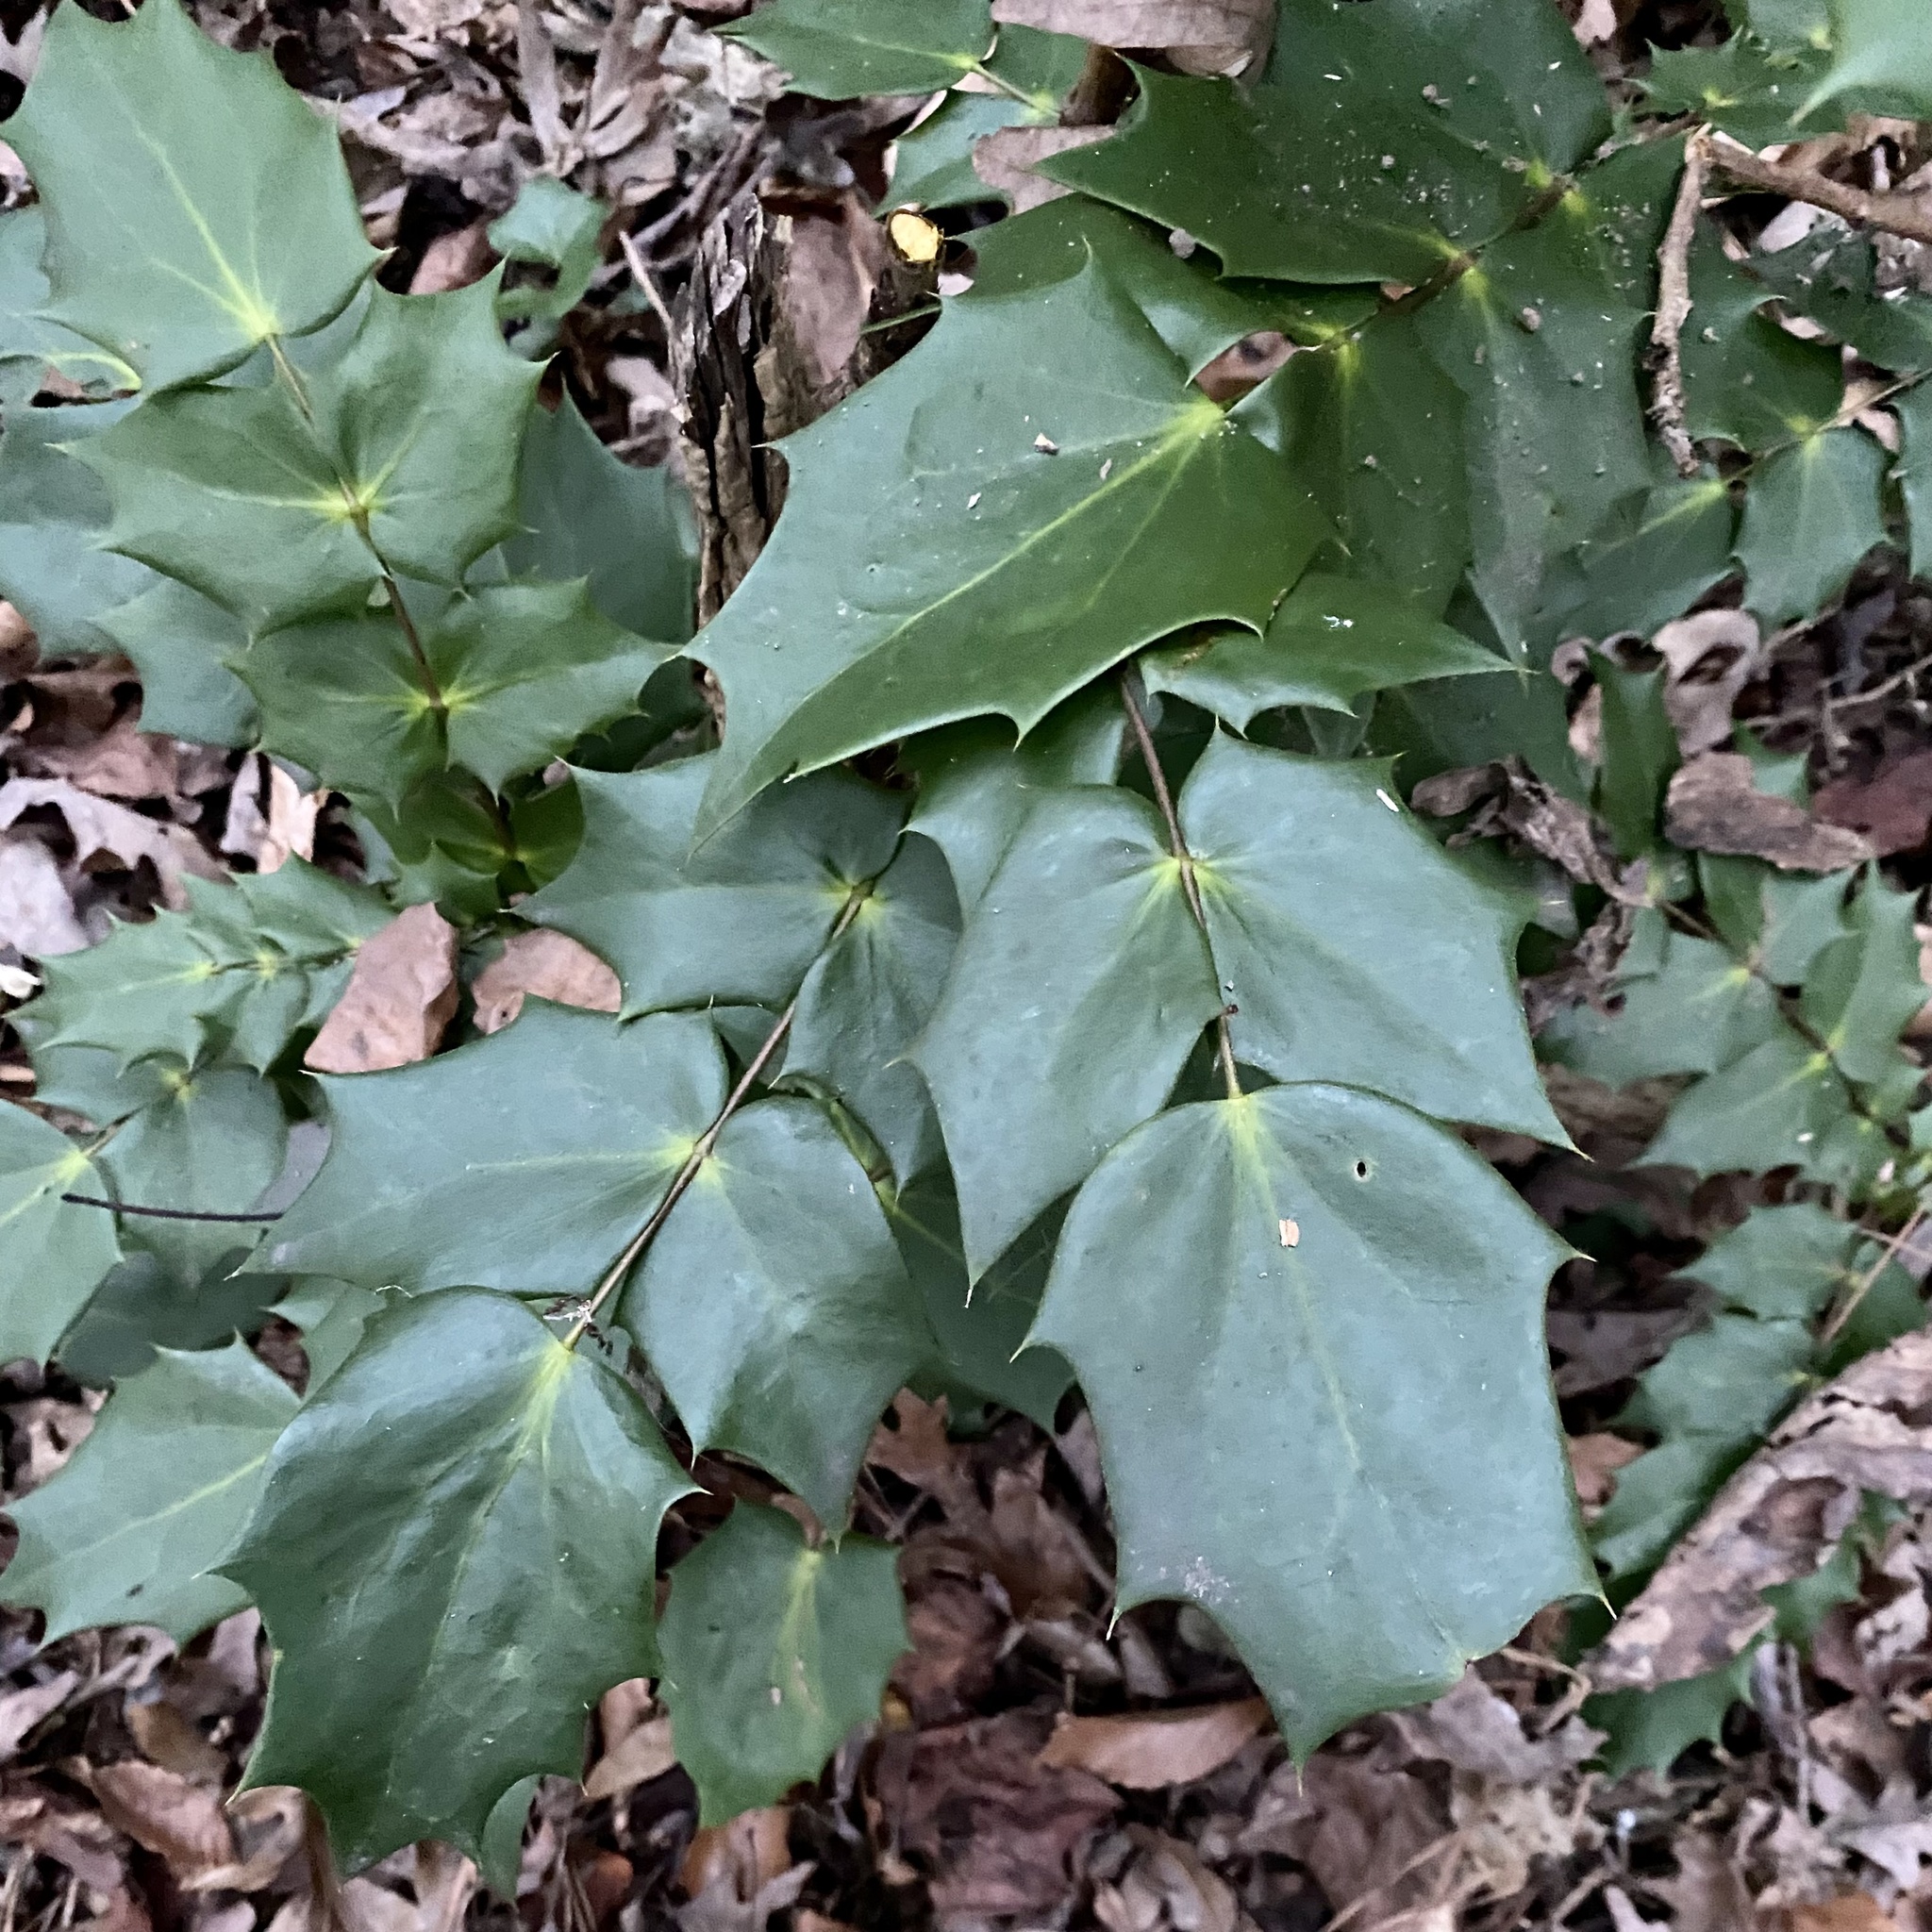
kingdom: Plantae
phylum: Tracheophyta
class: Magnoliopsida
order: Ranunculales
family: Berberidaceae
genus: Mahonia
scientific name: Mahonia bealei
